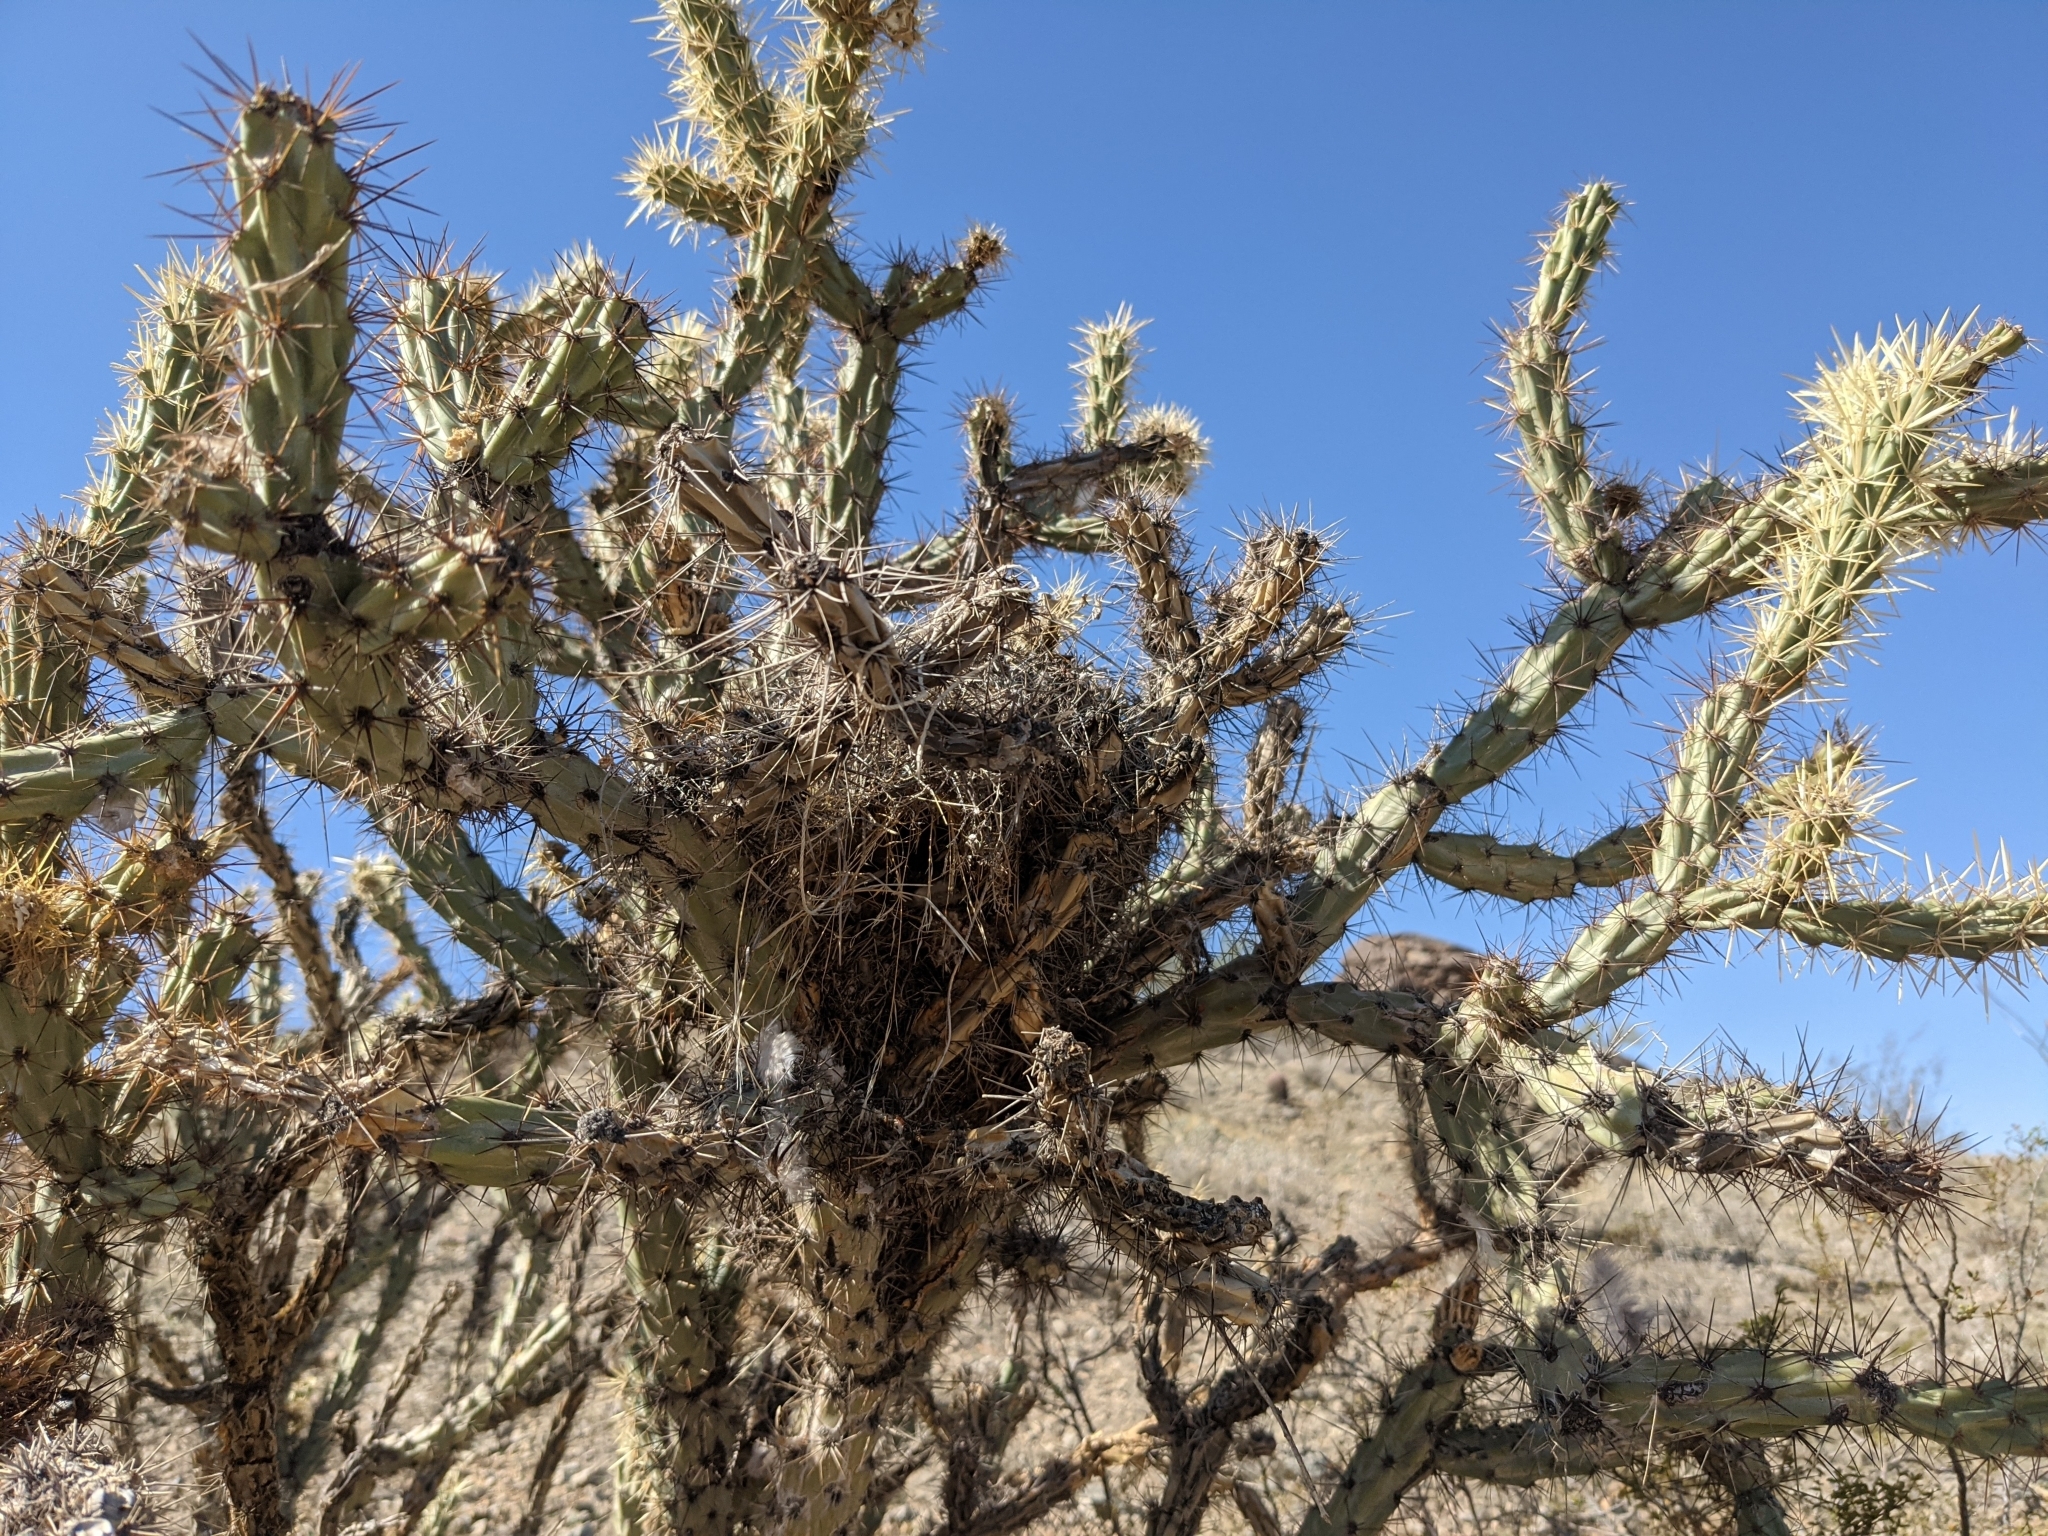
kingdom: Plantae
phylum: Tracheophyta
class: Magnoliopsida
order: Caryophyllales
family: Cactaceae
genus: Cylindropuntia
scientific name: Cylindropuntia acanthocarpa
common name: Buckhorn cholla
